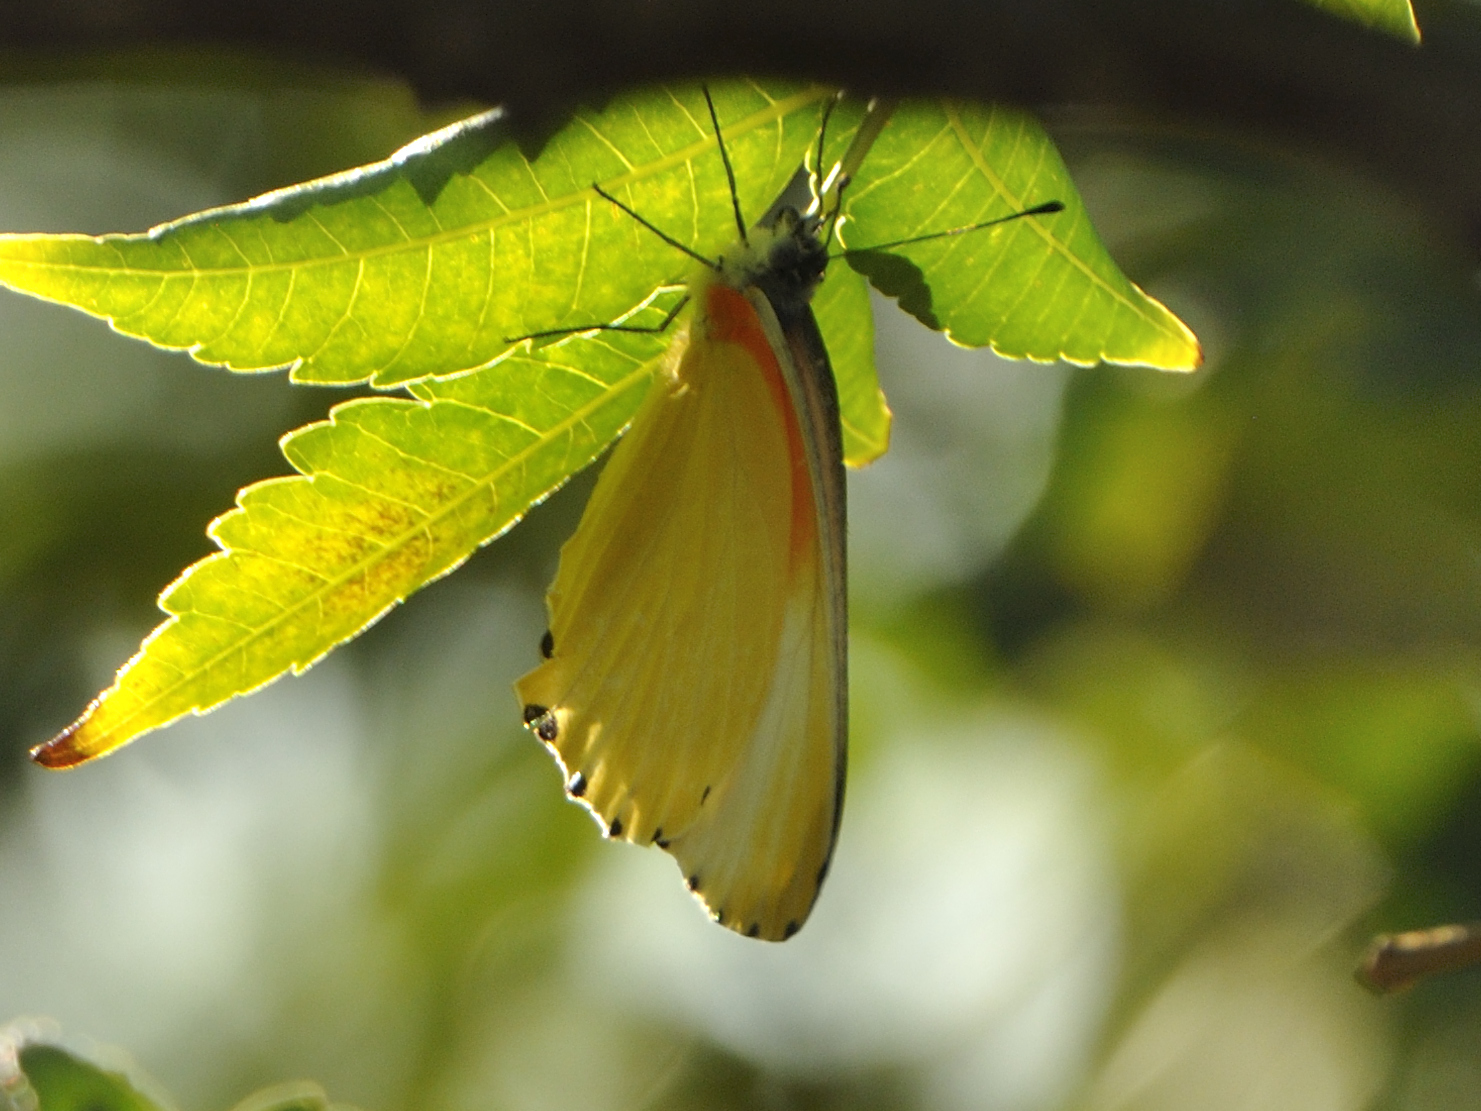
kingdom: Animalia
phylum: Arthropoda
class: Insecta
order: Lepidoptera
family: Pieridae
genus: Mylothris
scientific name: Mylothris agathina
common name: Eastern dotted border
